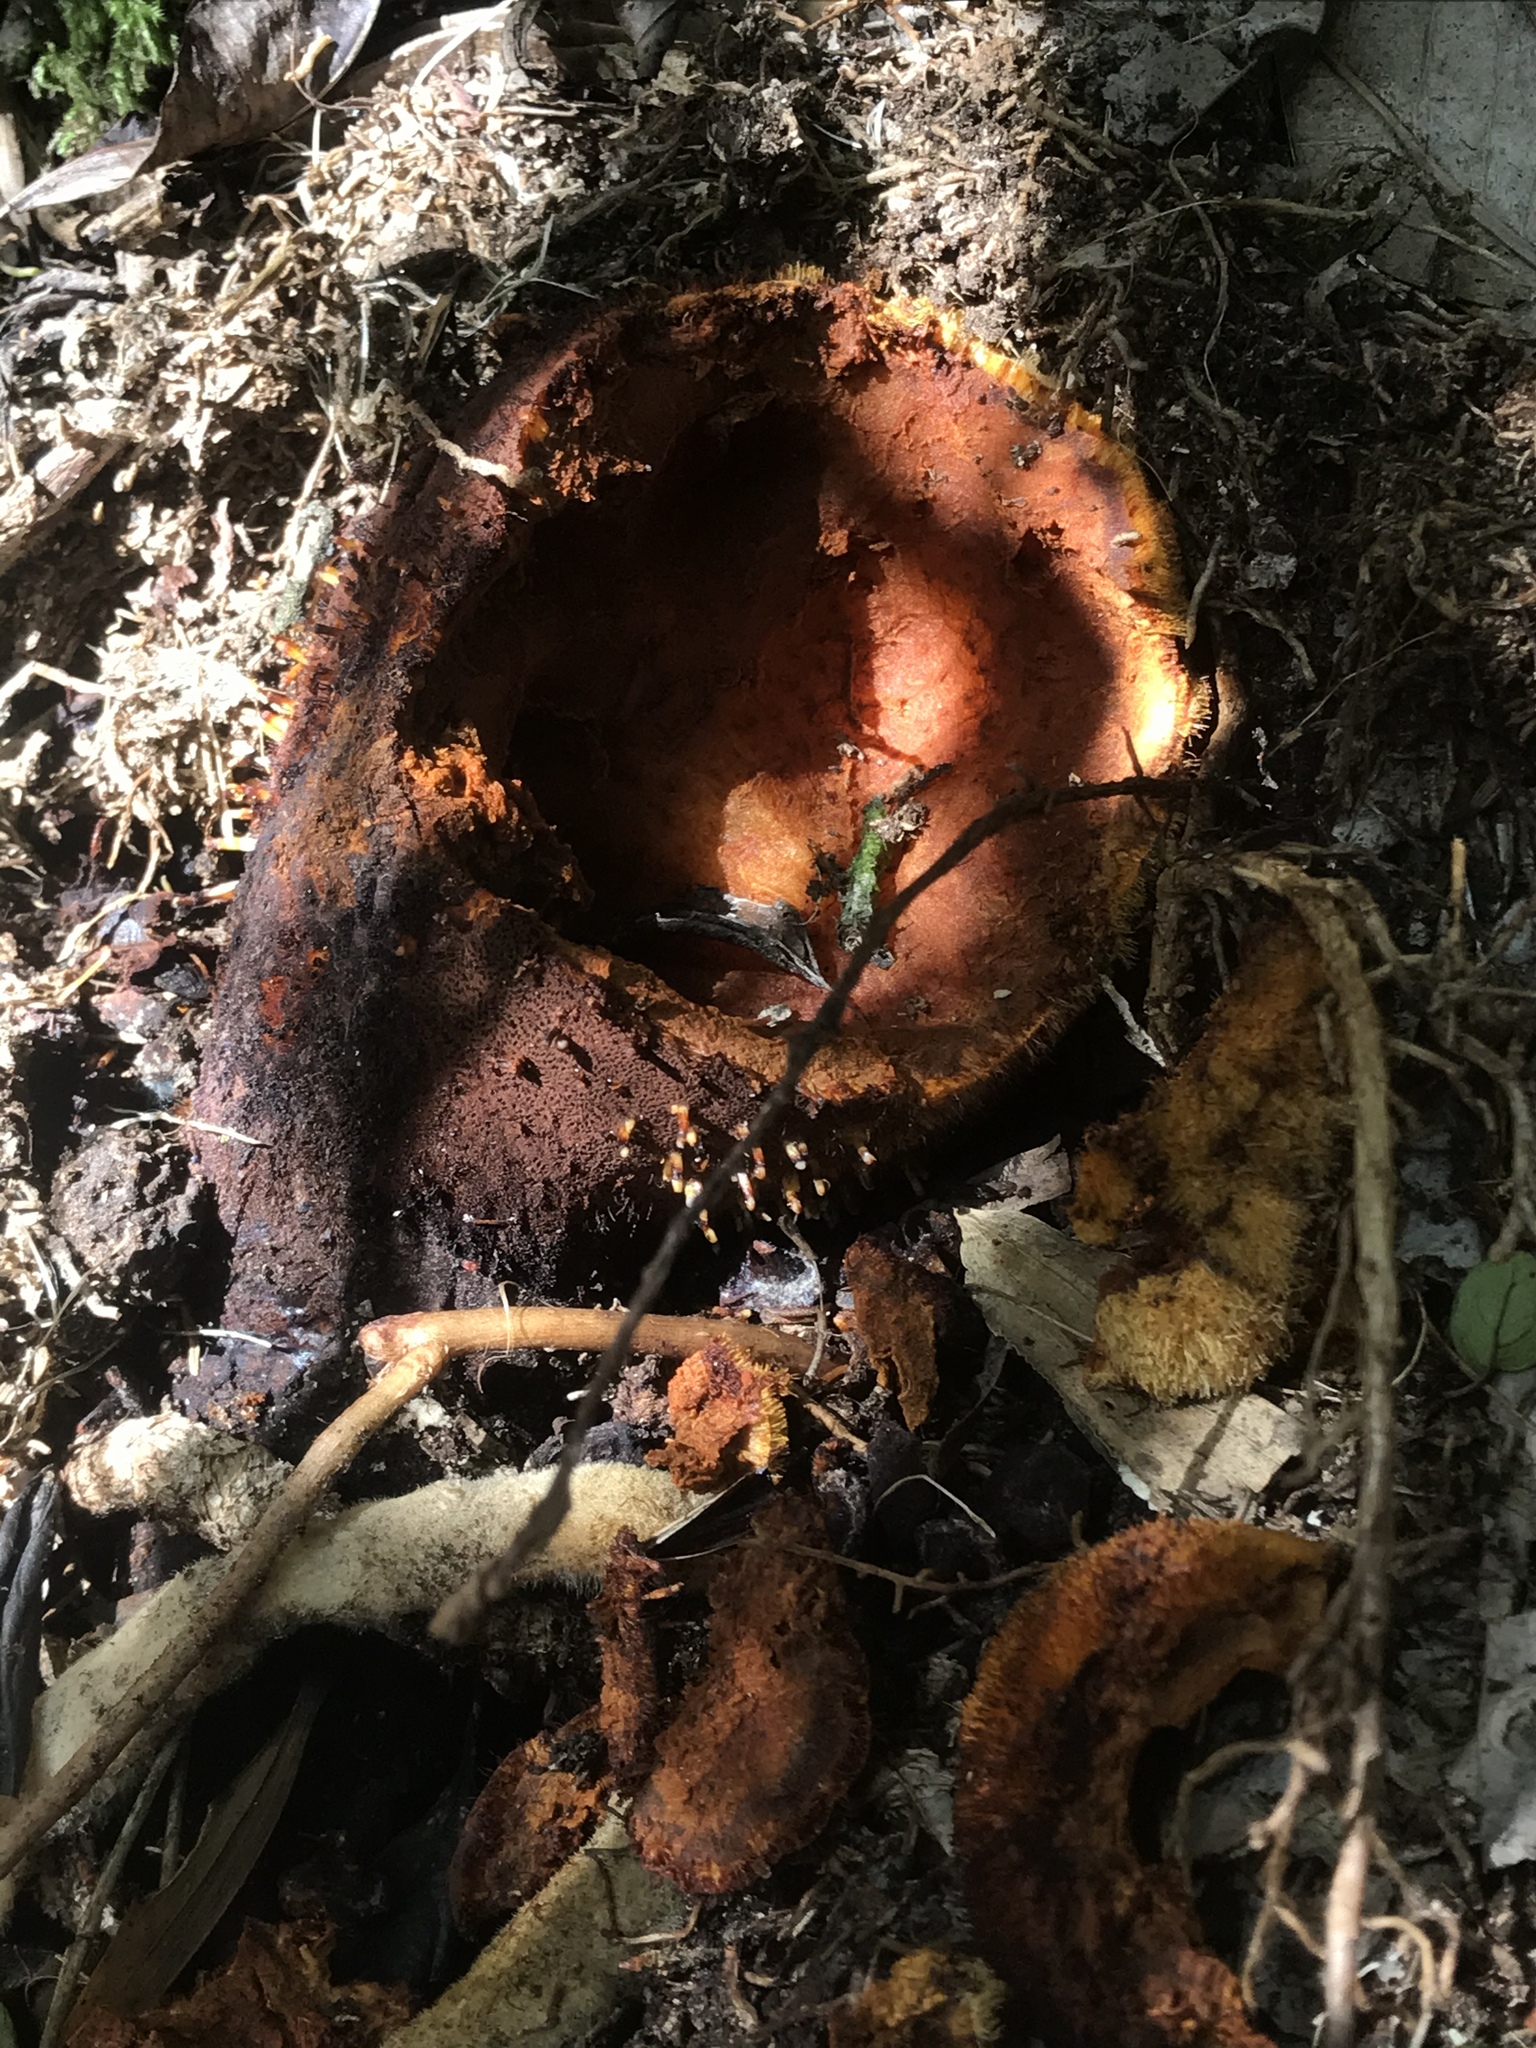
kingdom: Plantae
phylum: Tracheophyta
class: Magnoliopsida
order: Santalales
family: Balanophoraceae
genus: Corynaea
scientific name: Corynaea crassa
